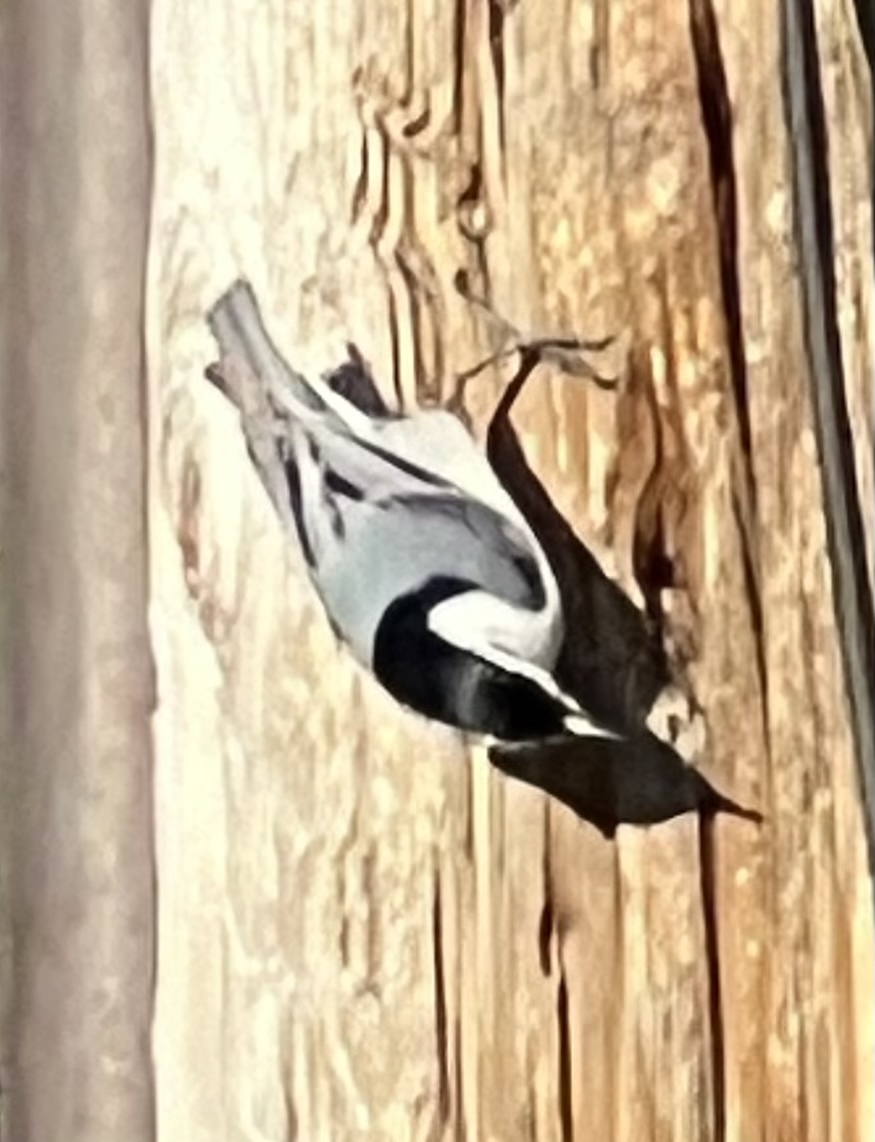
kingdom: Animalia
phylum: Chordata
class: Aves
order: Passeriformes
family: Sittidae
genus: Sitta
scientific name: Sitta carolinensis
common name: White-breasted nuthatch
